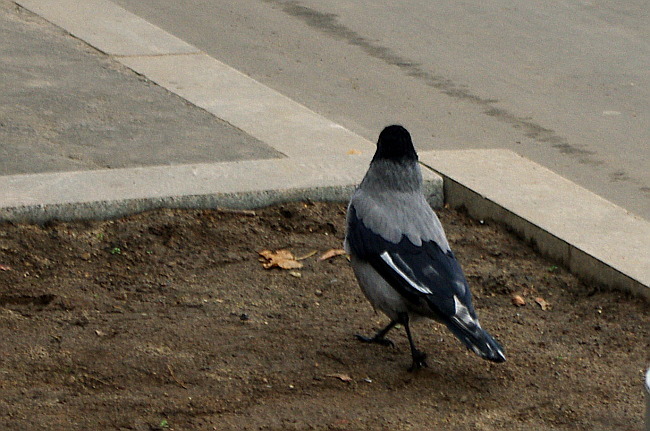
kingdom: Animalia
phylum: Chordata
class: Aves
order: Passeriformes
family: Corvidae
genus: Corvus
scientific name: Corvus cornix
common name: Hooded crow
